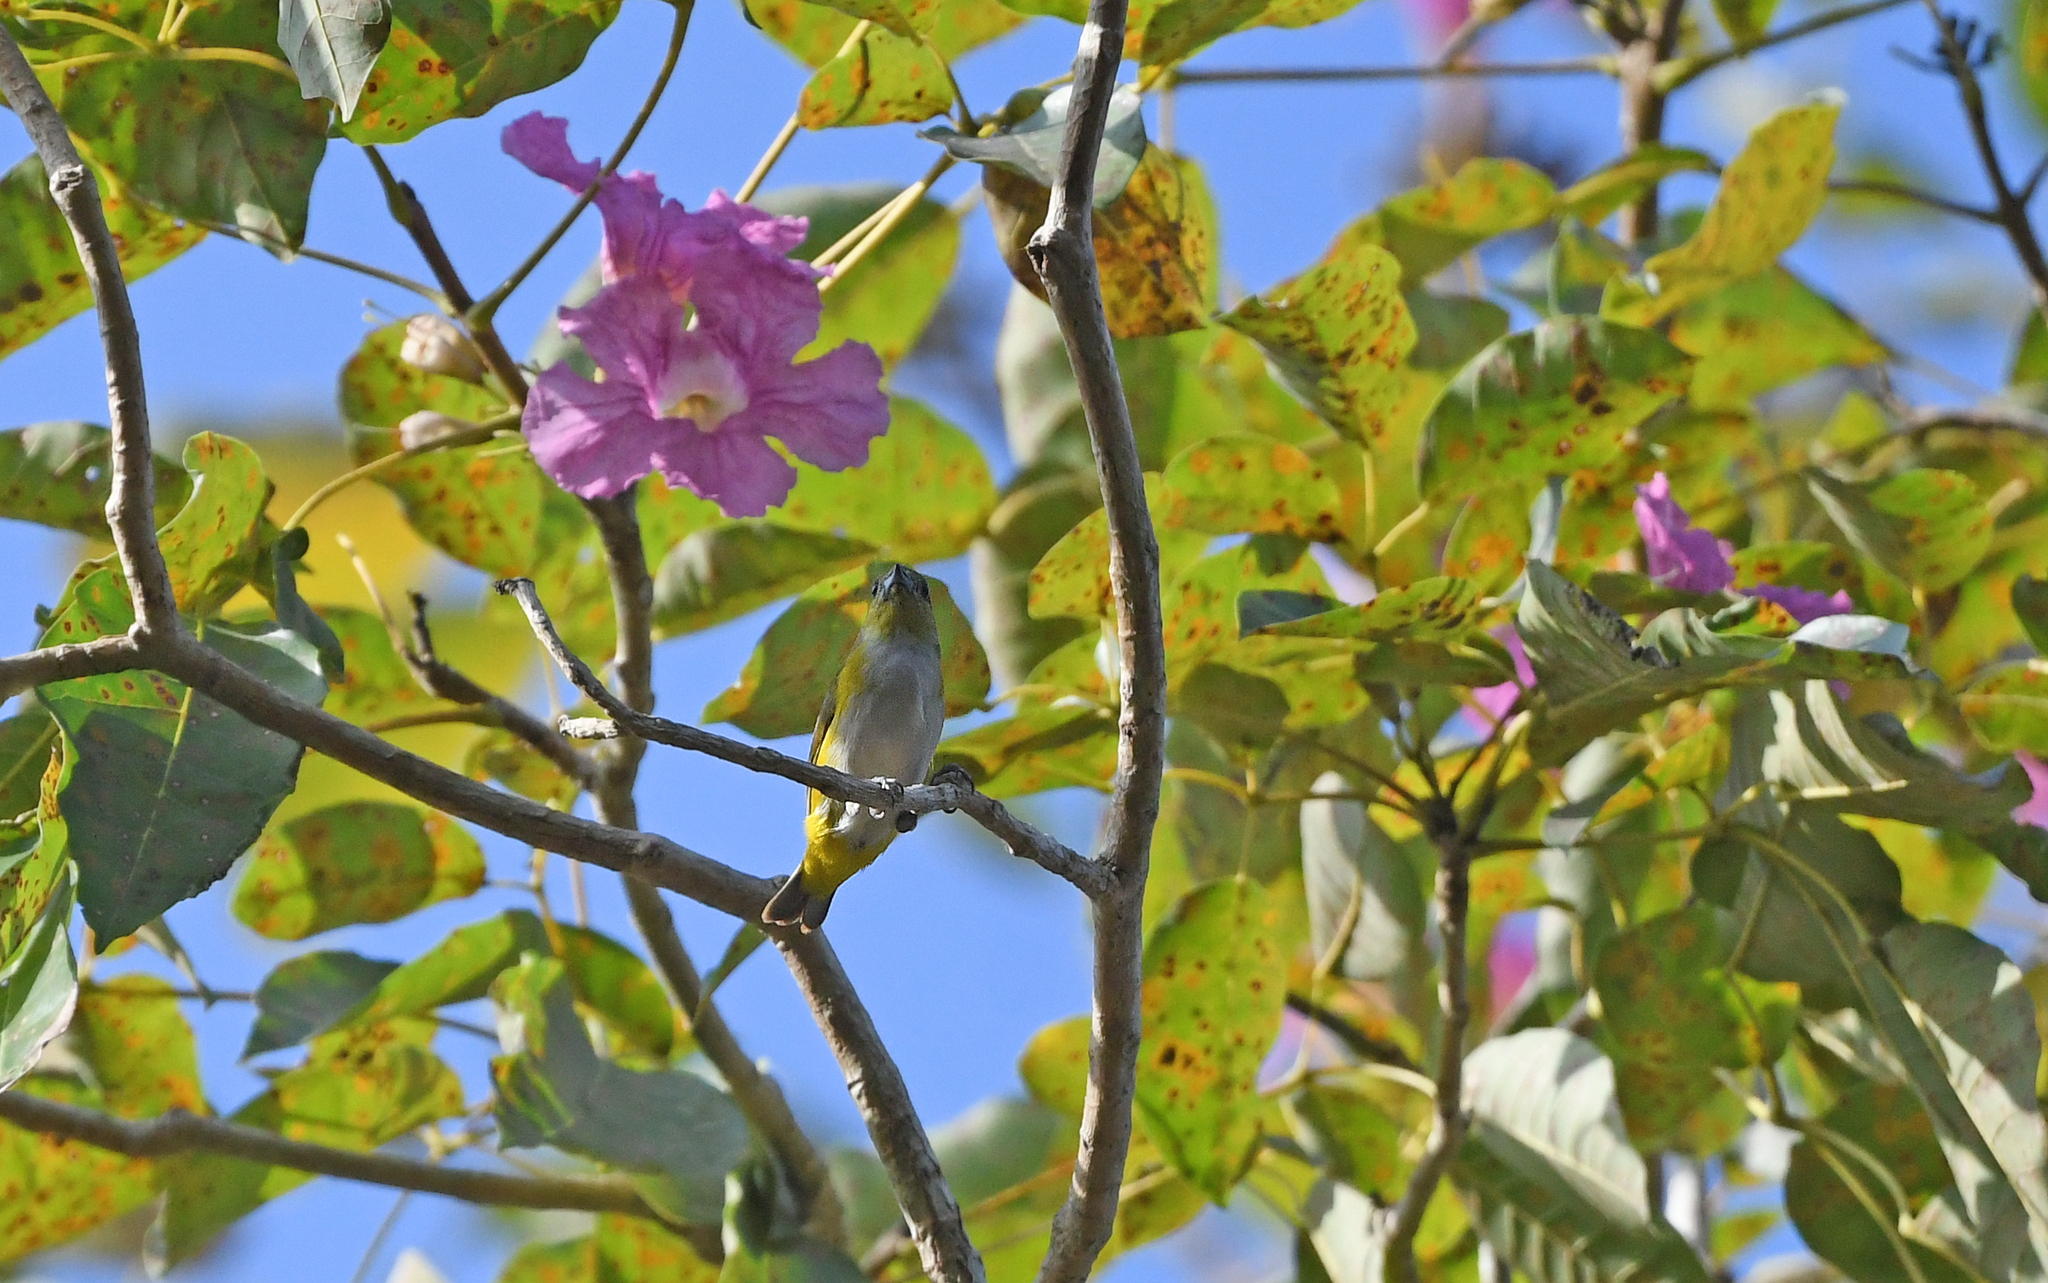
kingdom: Animalia
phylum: Chordata
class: Aves
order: Passeriformes
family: Fringillidae
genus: Euphonia
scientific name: Euphonia trinitatis
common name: Trinidad euphonia
